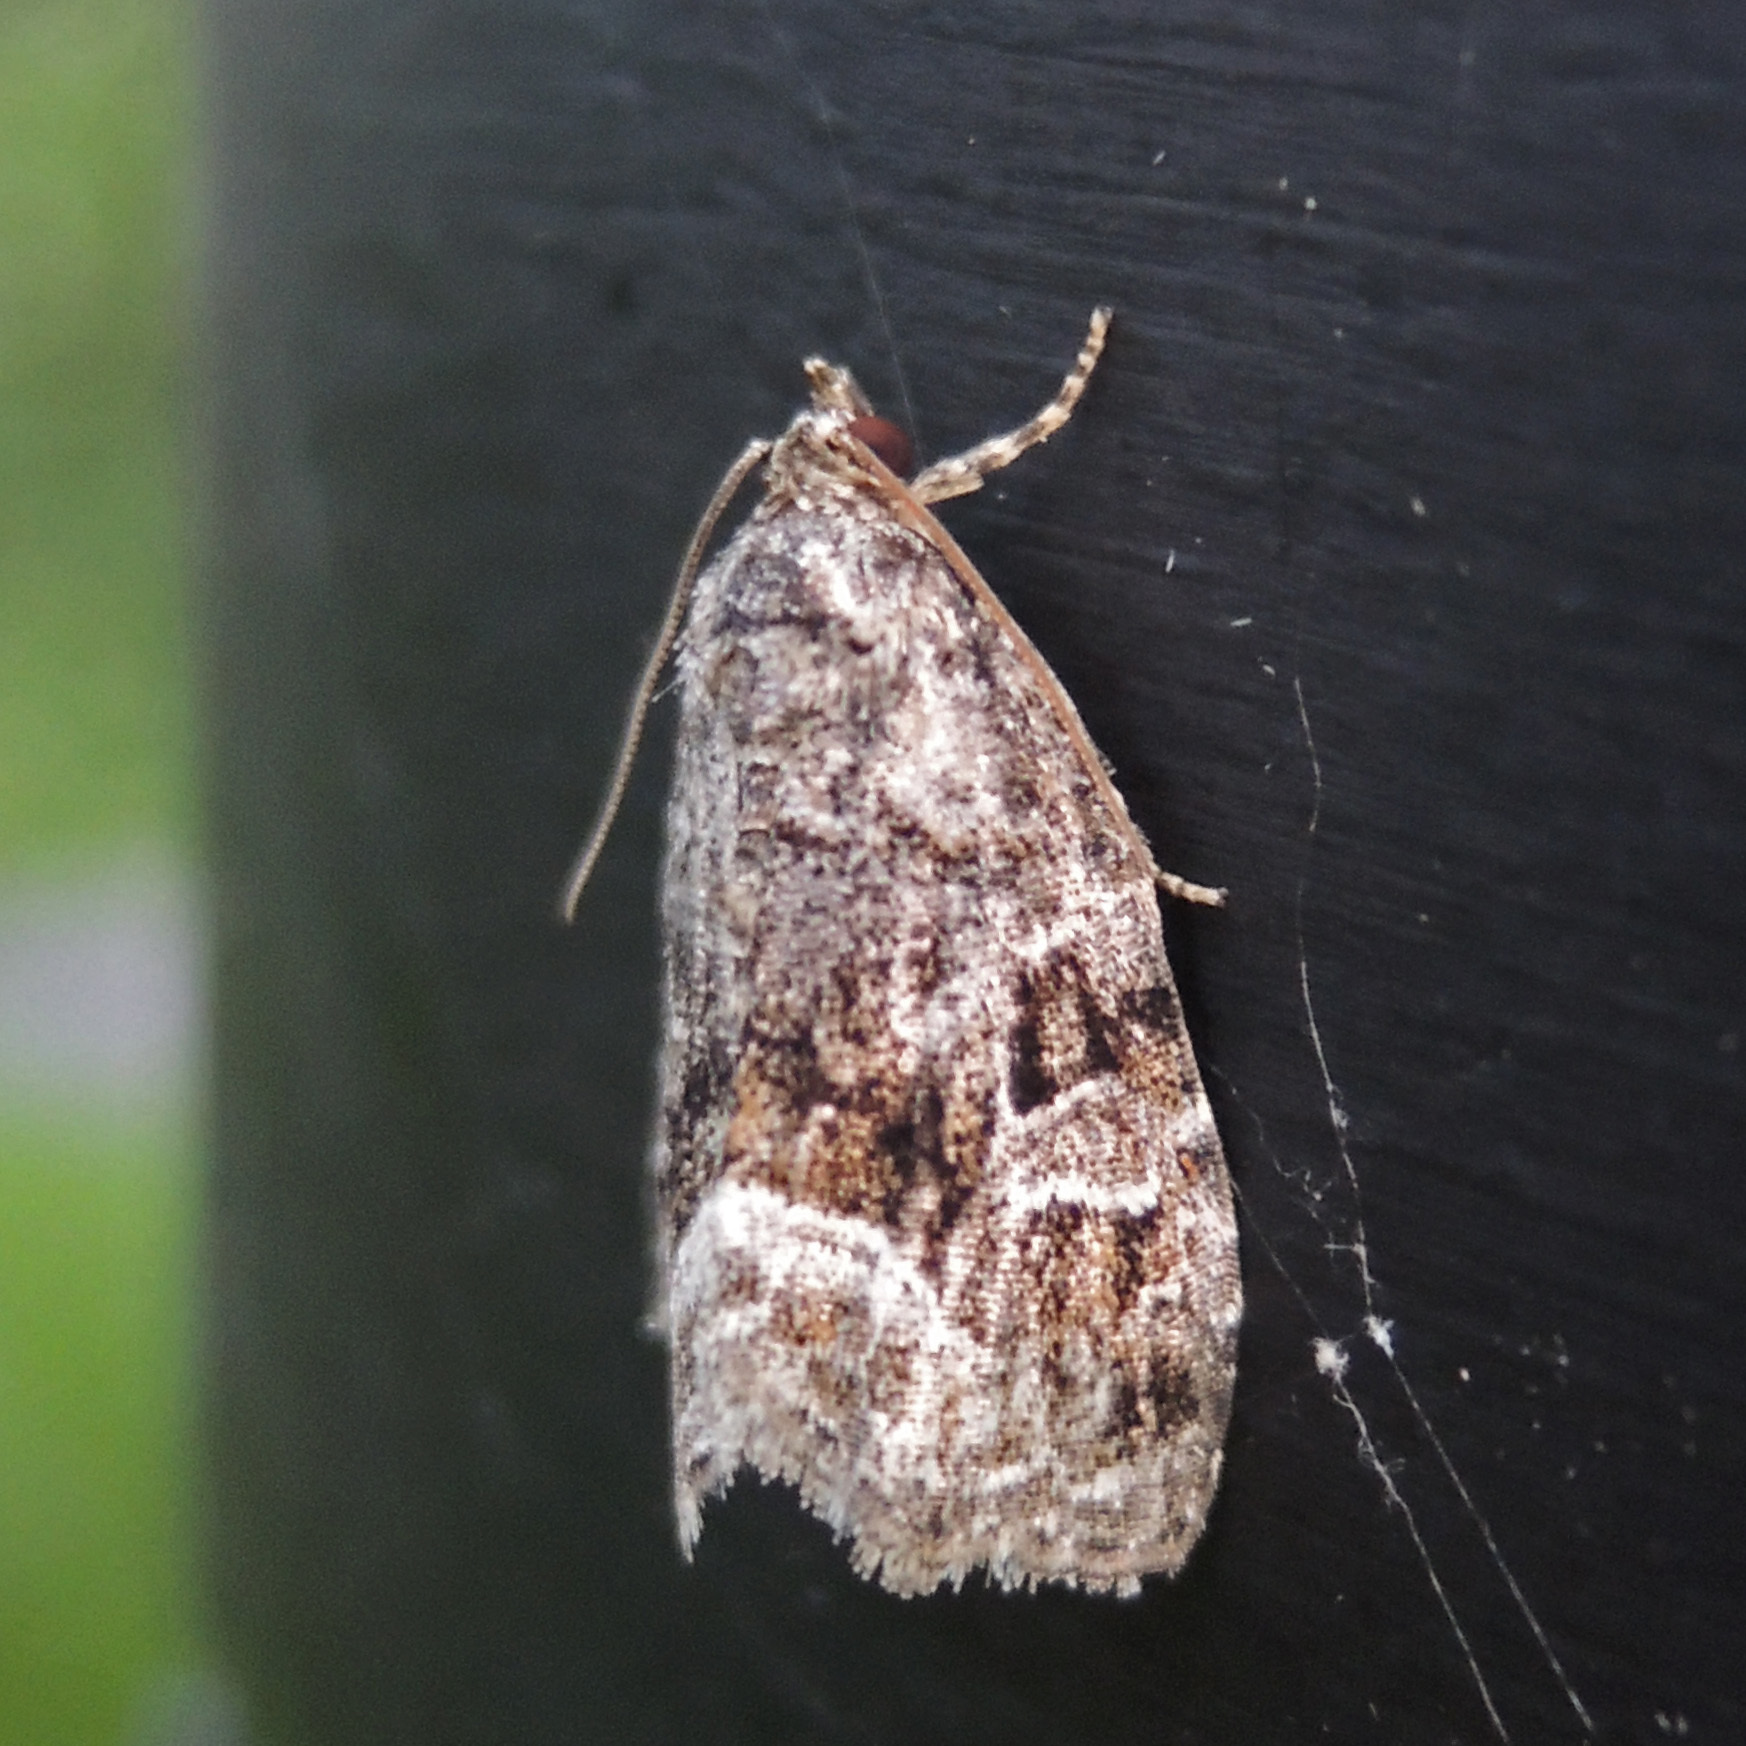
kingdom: Animalia
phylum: Arthropoda
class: Insecta
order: Lepidoptera
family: Noctuidae
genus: Protodeltote
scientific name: Protodeltote muscosula
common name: Large mossy glyph
